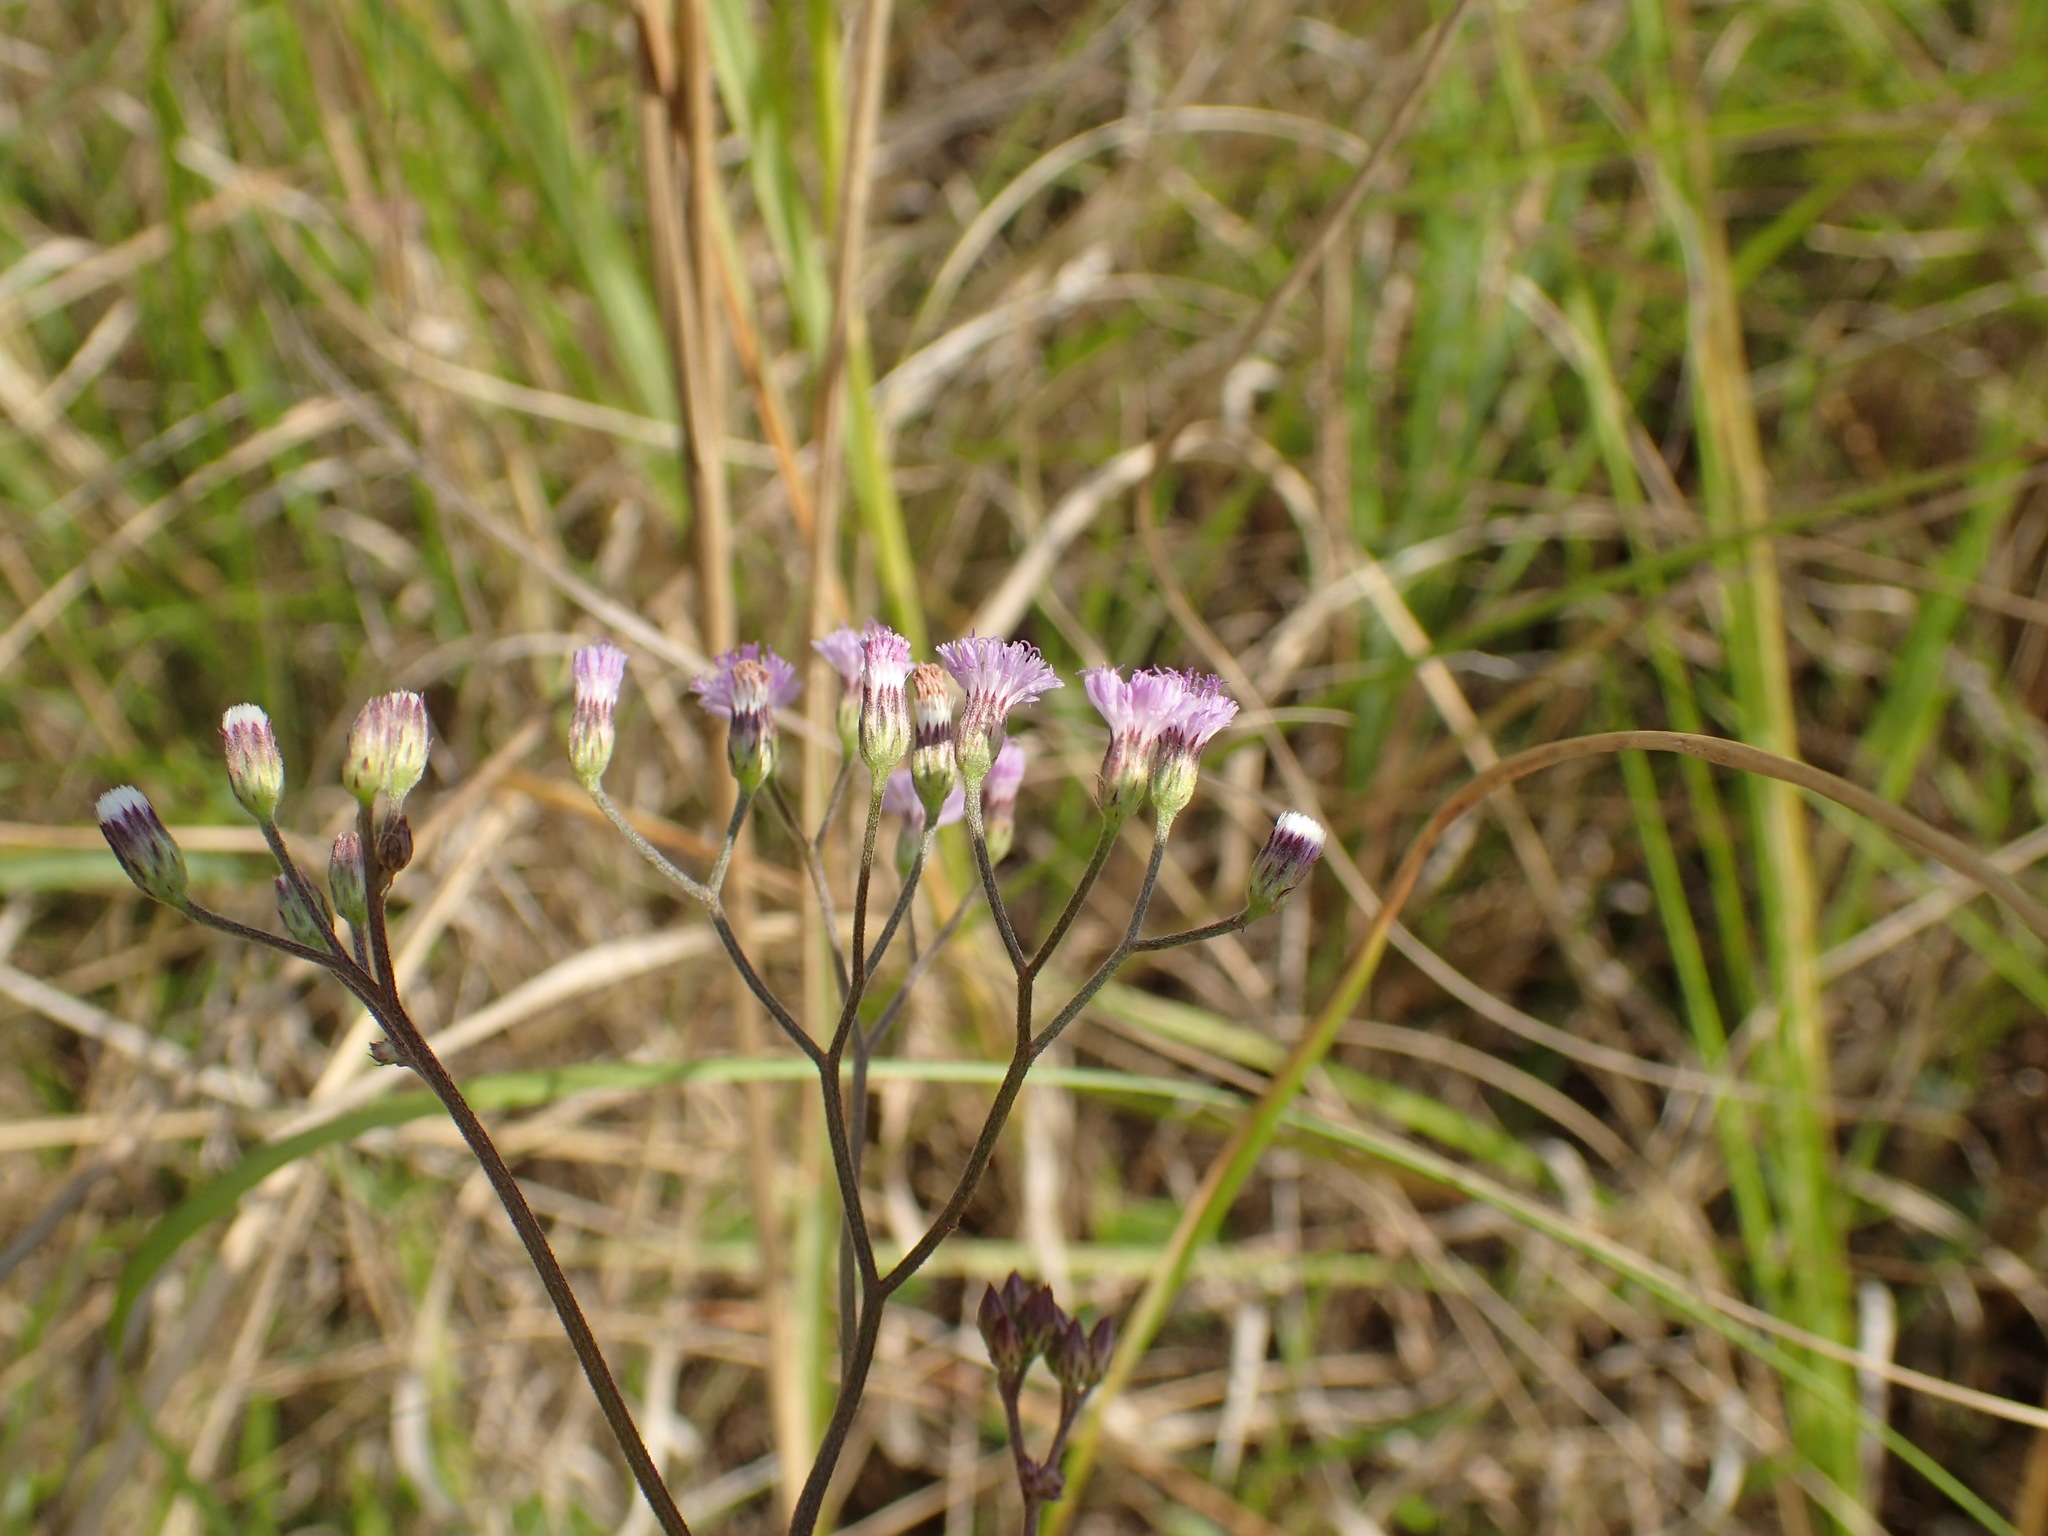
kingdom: Plantae
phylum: Tracheophyta
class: Magnoliopsida
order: Asterales
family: Asteraceae
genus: Cyanthillium
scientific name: Cyanthillium cinereum
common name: Little ironweed
